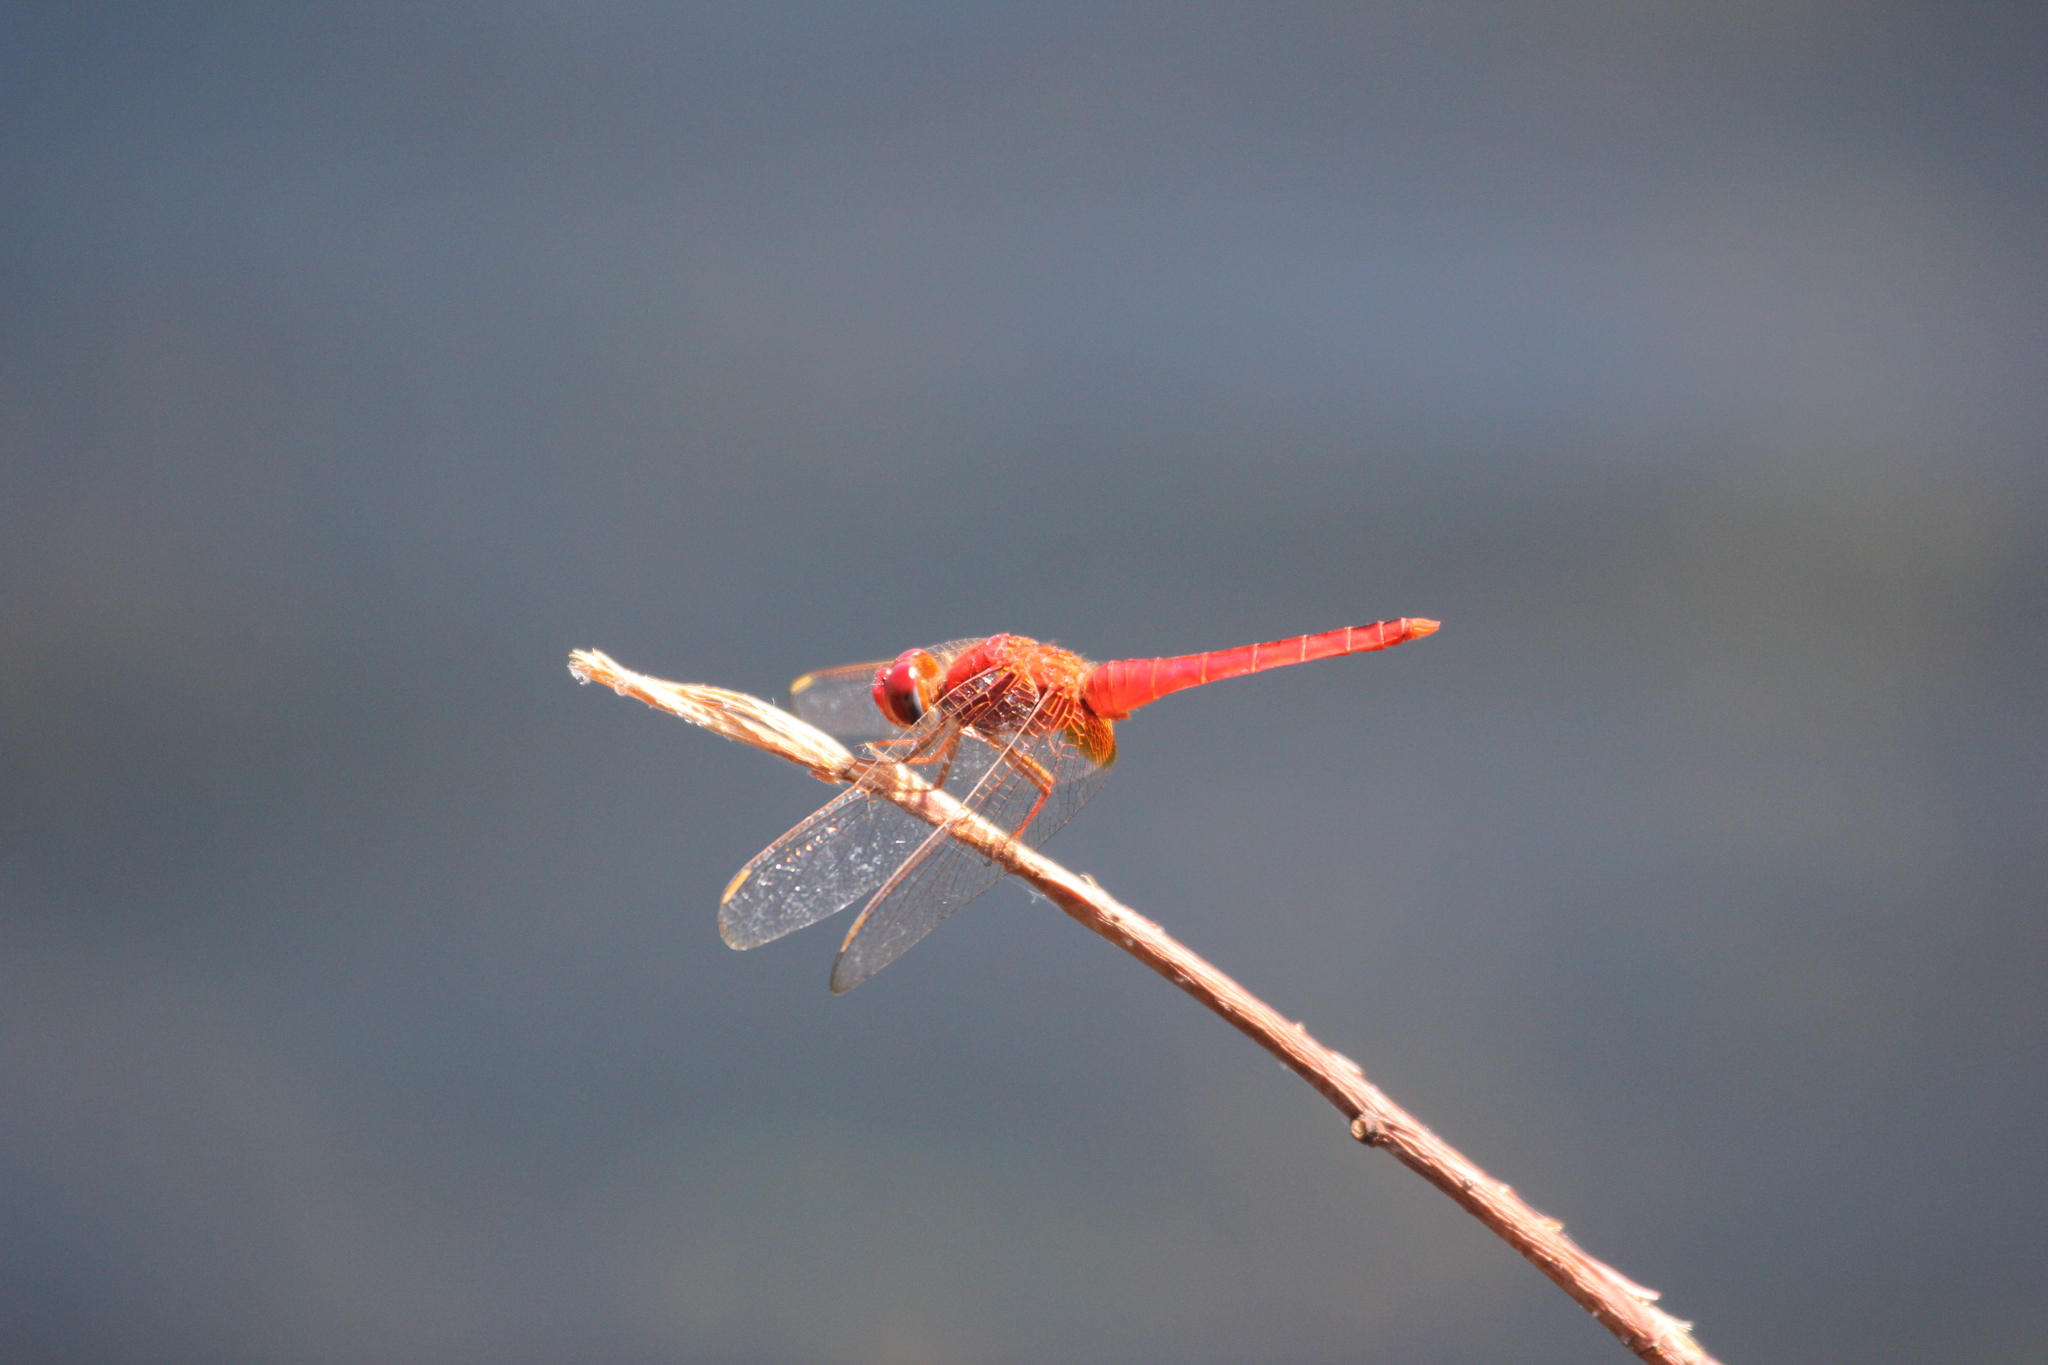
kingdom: Animalia
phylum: Arthropoda
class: Insecta
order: Odonata
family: Libellulidae
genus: Crocothemis
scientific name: Crocothemis servilia
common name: Scarlet skimmer
